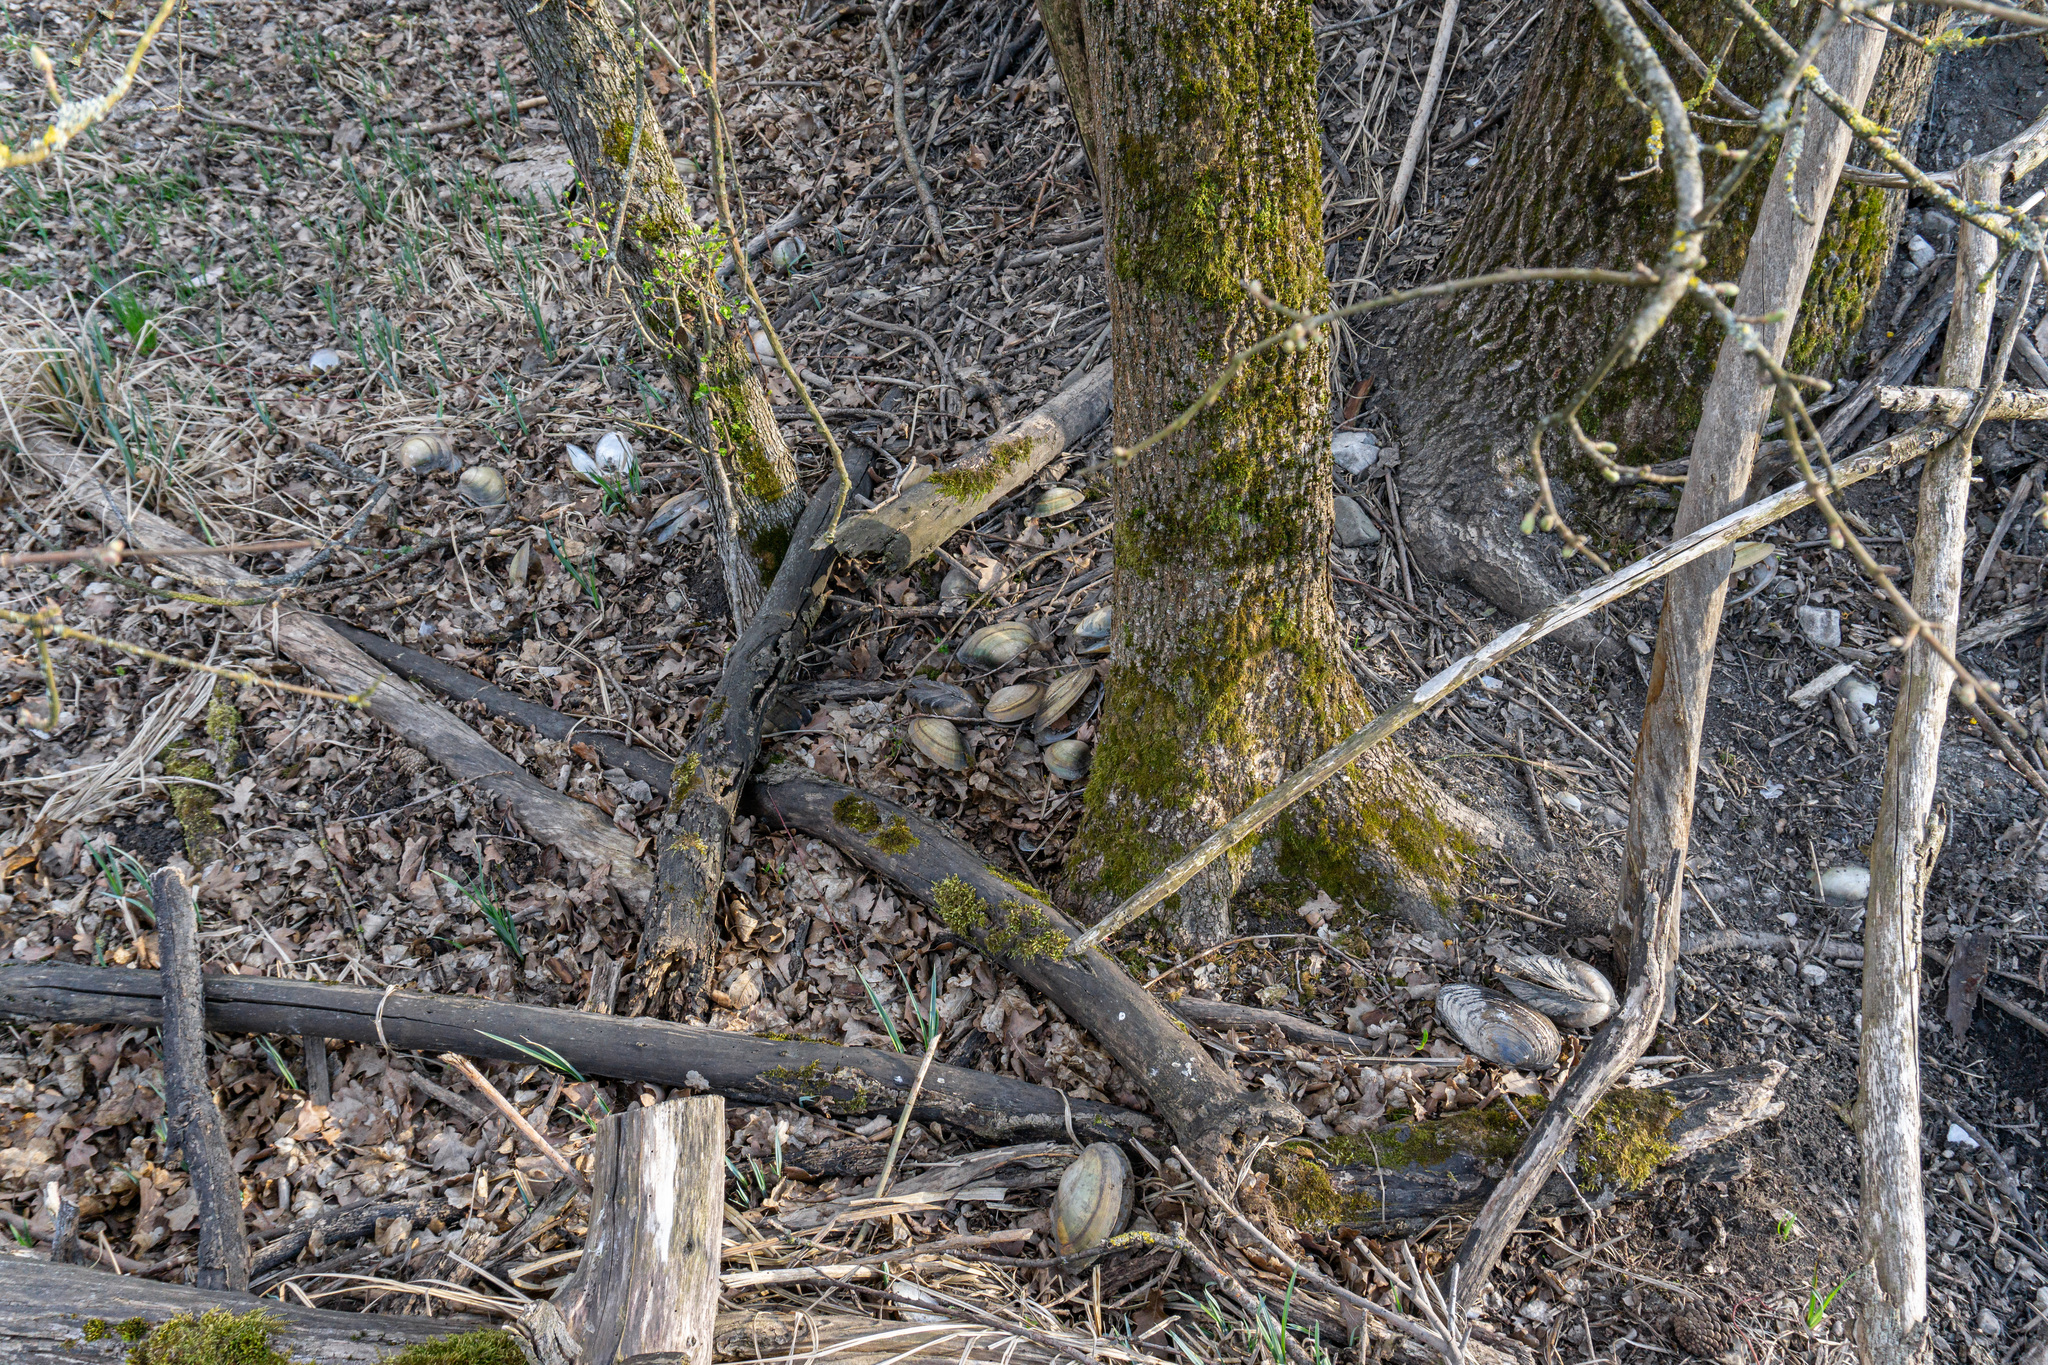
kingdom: Animalia
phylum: Mollusca
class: Bivalvia
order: Unionida
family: Unionidae
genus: Anodonta
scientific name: Anodonta anatina
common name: Duck mussel
